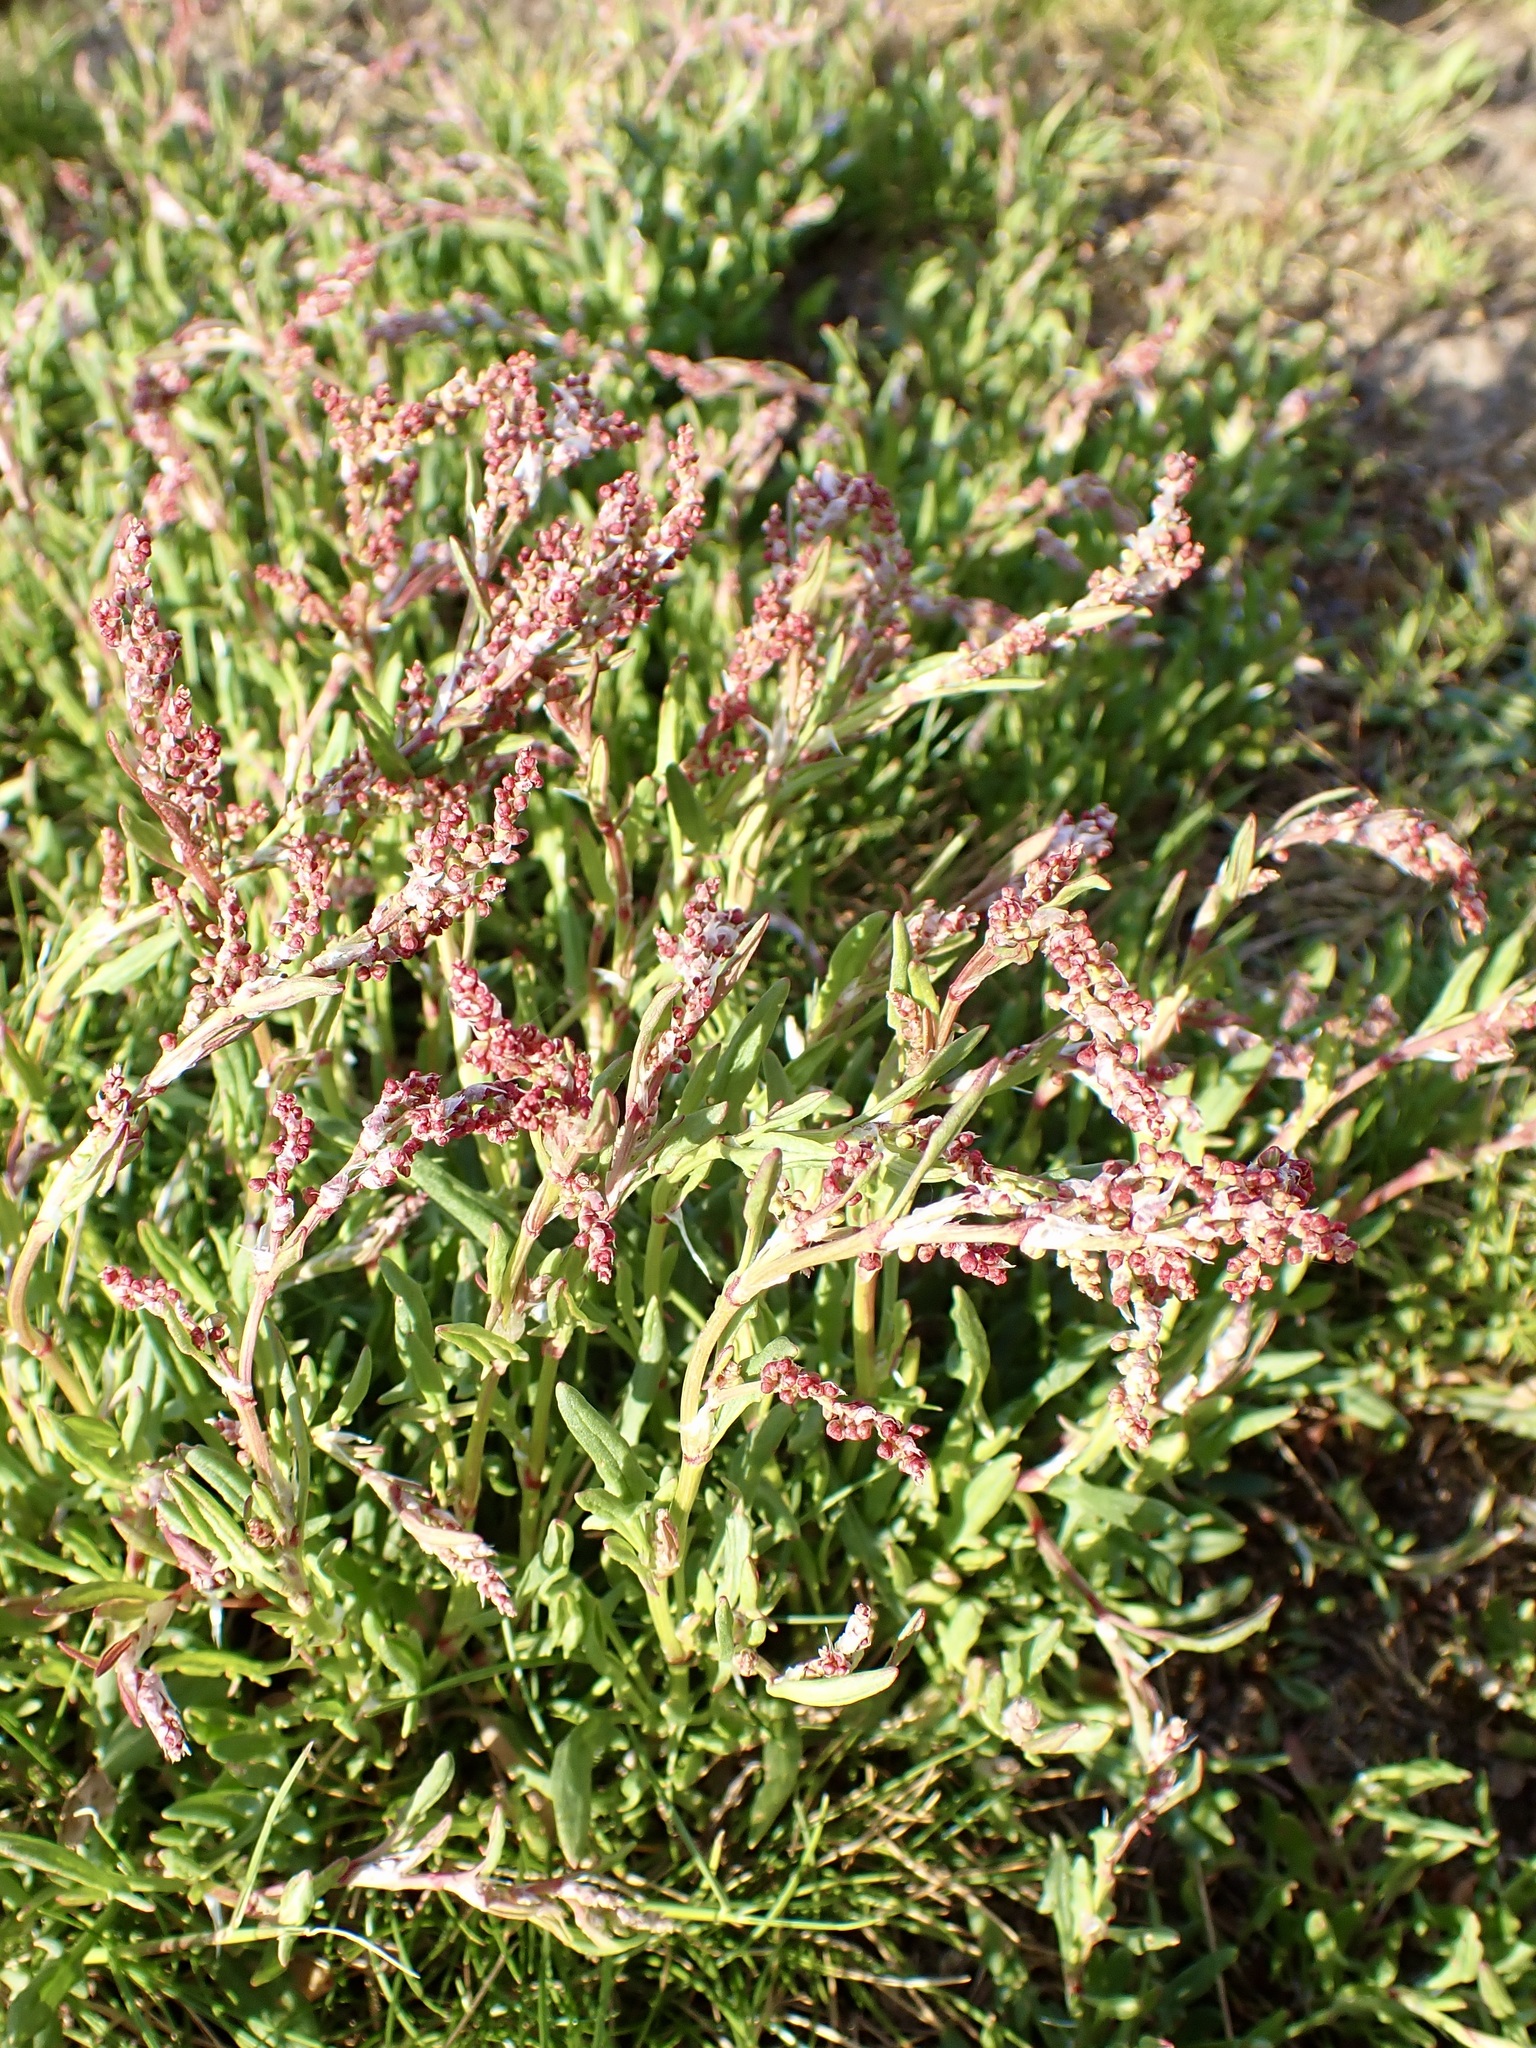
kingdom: Plantae
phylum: Tracheophyta
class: Magnoliopsida
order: Caryophyllales
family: Polygonaceae
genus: Rumex
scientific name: Rumex acetosella
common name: Common sheep sorrel
